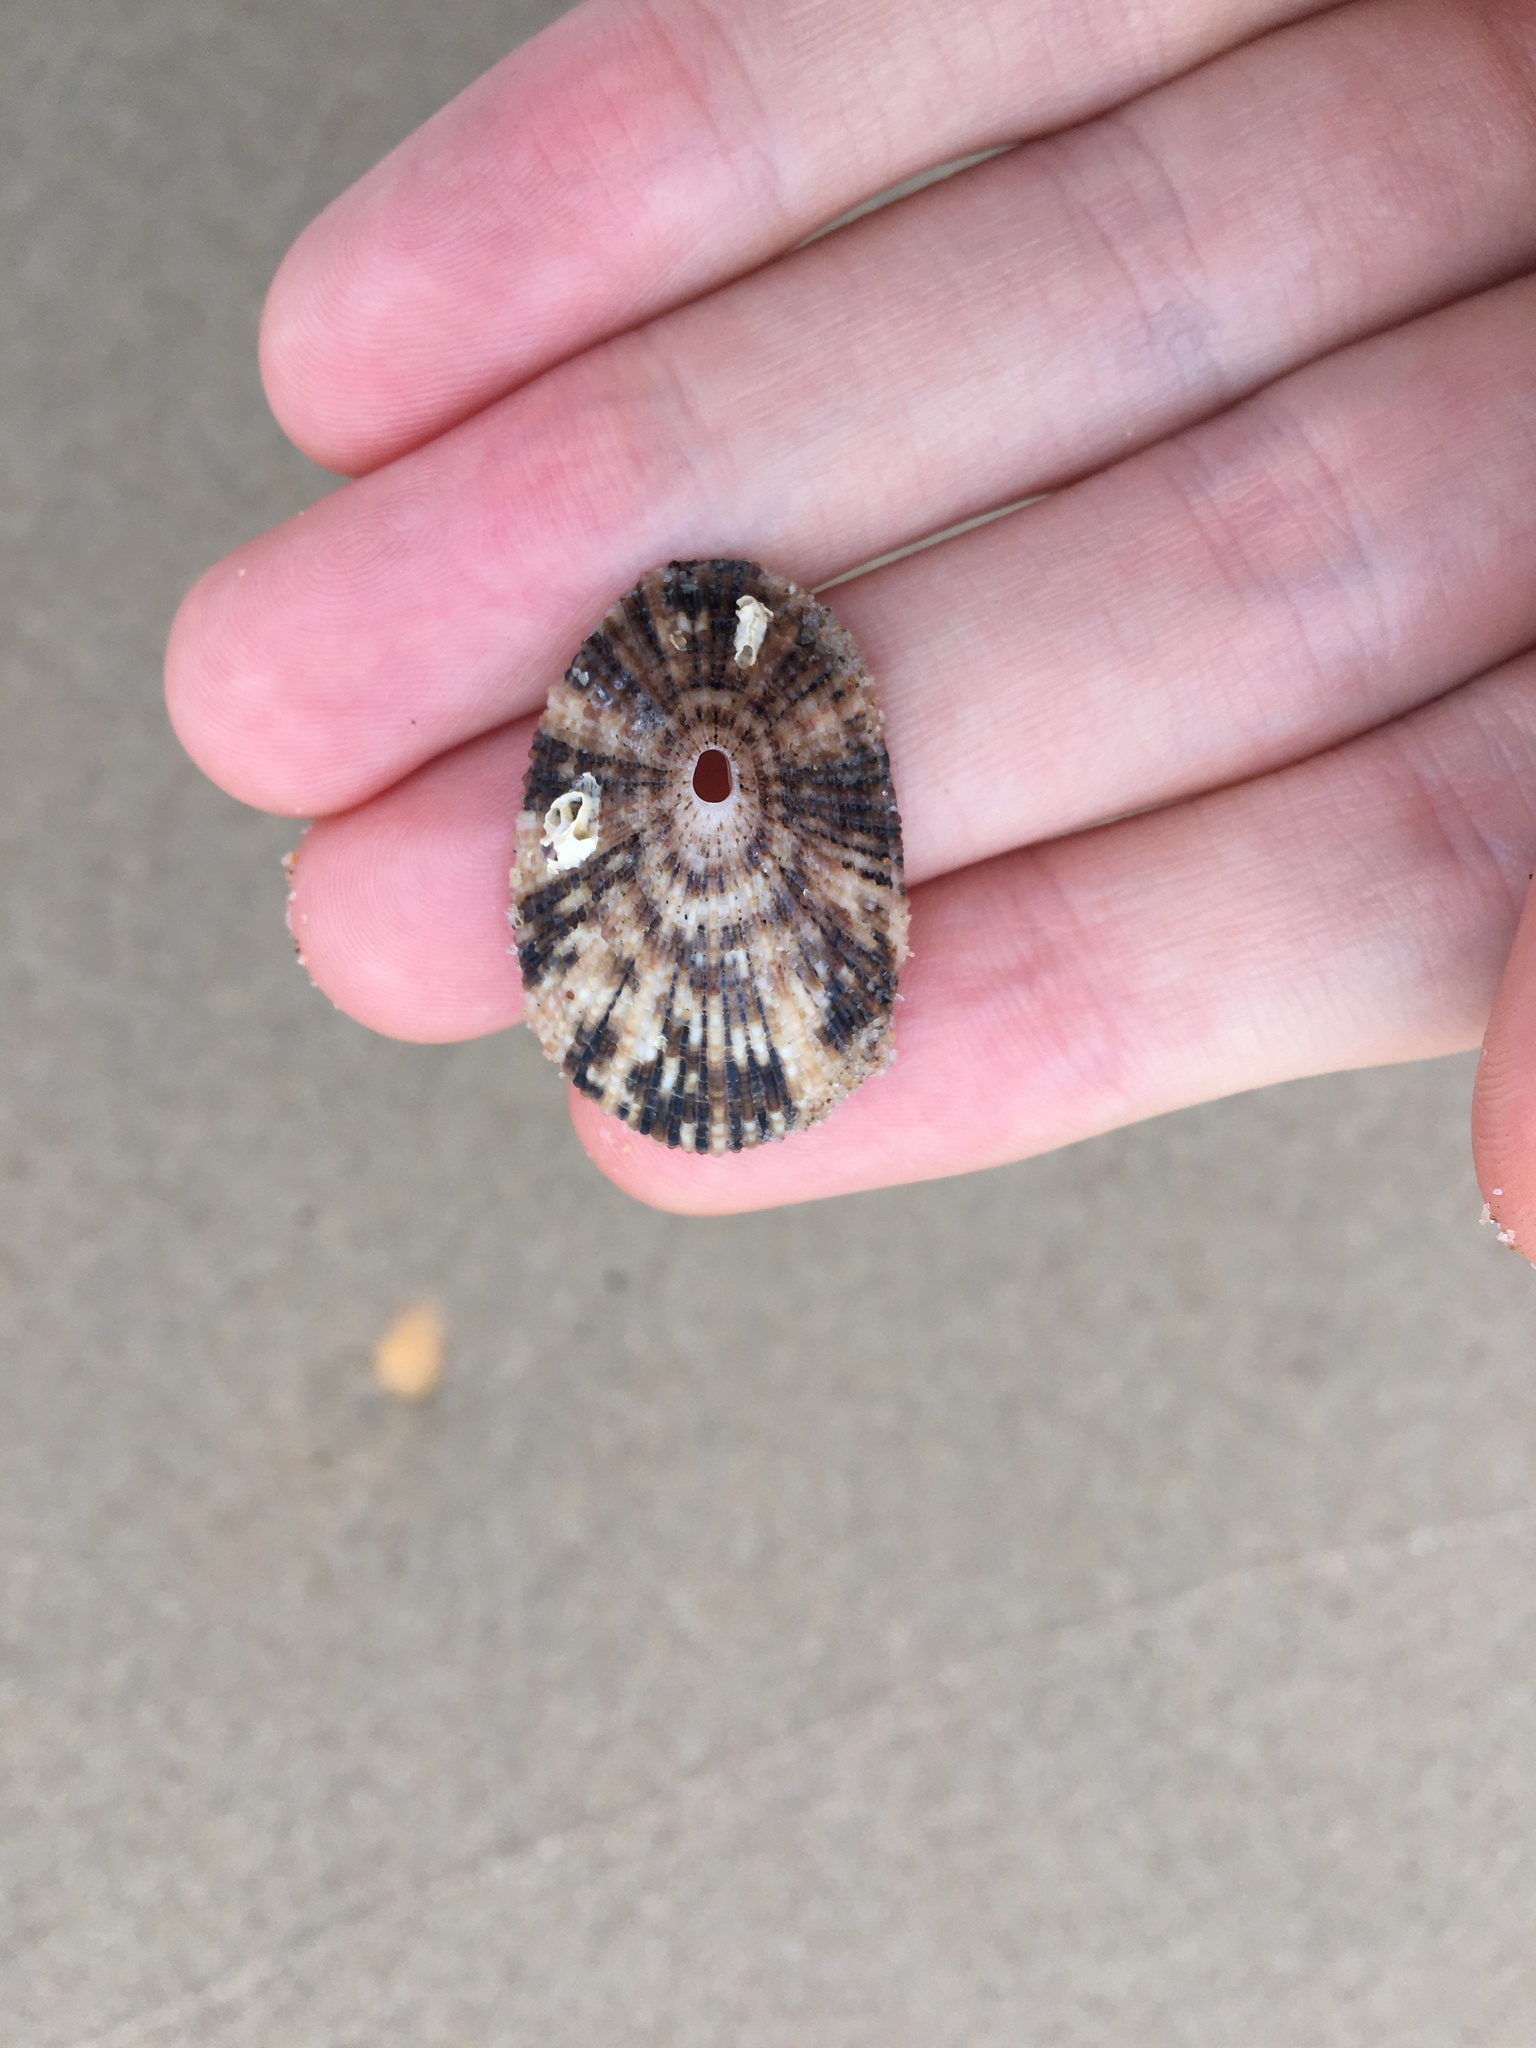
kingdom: Animalia
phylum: Mollusca
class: Gastropoda
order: Lepetellida
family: Fissurellidae
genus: Diodora
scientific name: Diodora lineata
